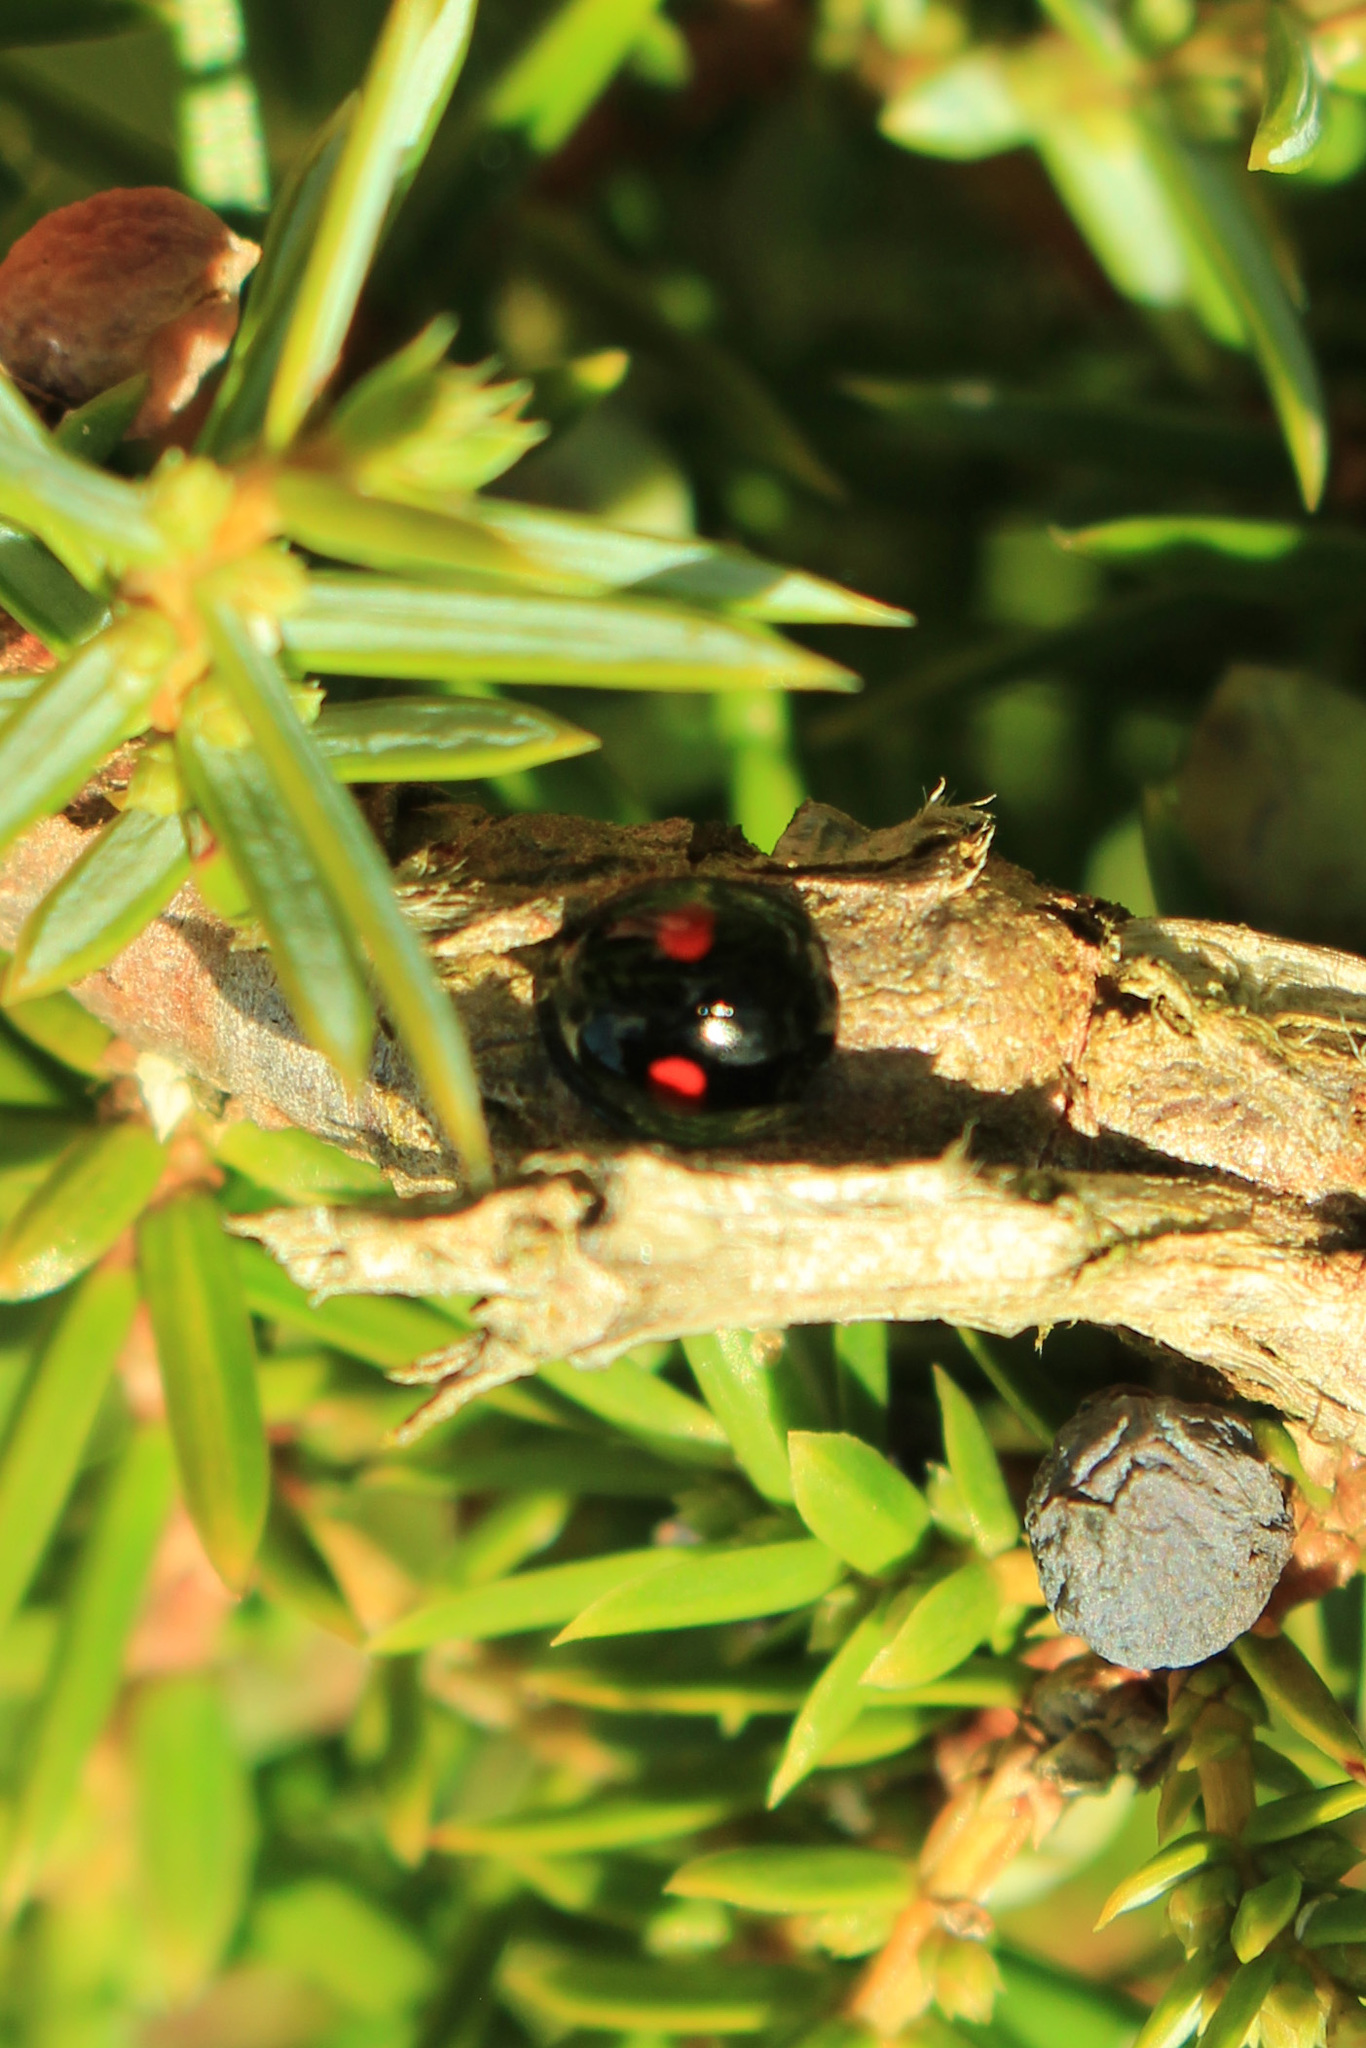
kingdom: Animalia
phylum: Arthropoda
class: Insecta
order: Coleoptera
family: Coccinellidae
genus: Chilocorus
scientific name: Chilocorus renipustulatus
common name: Kidney-spot ladybird
